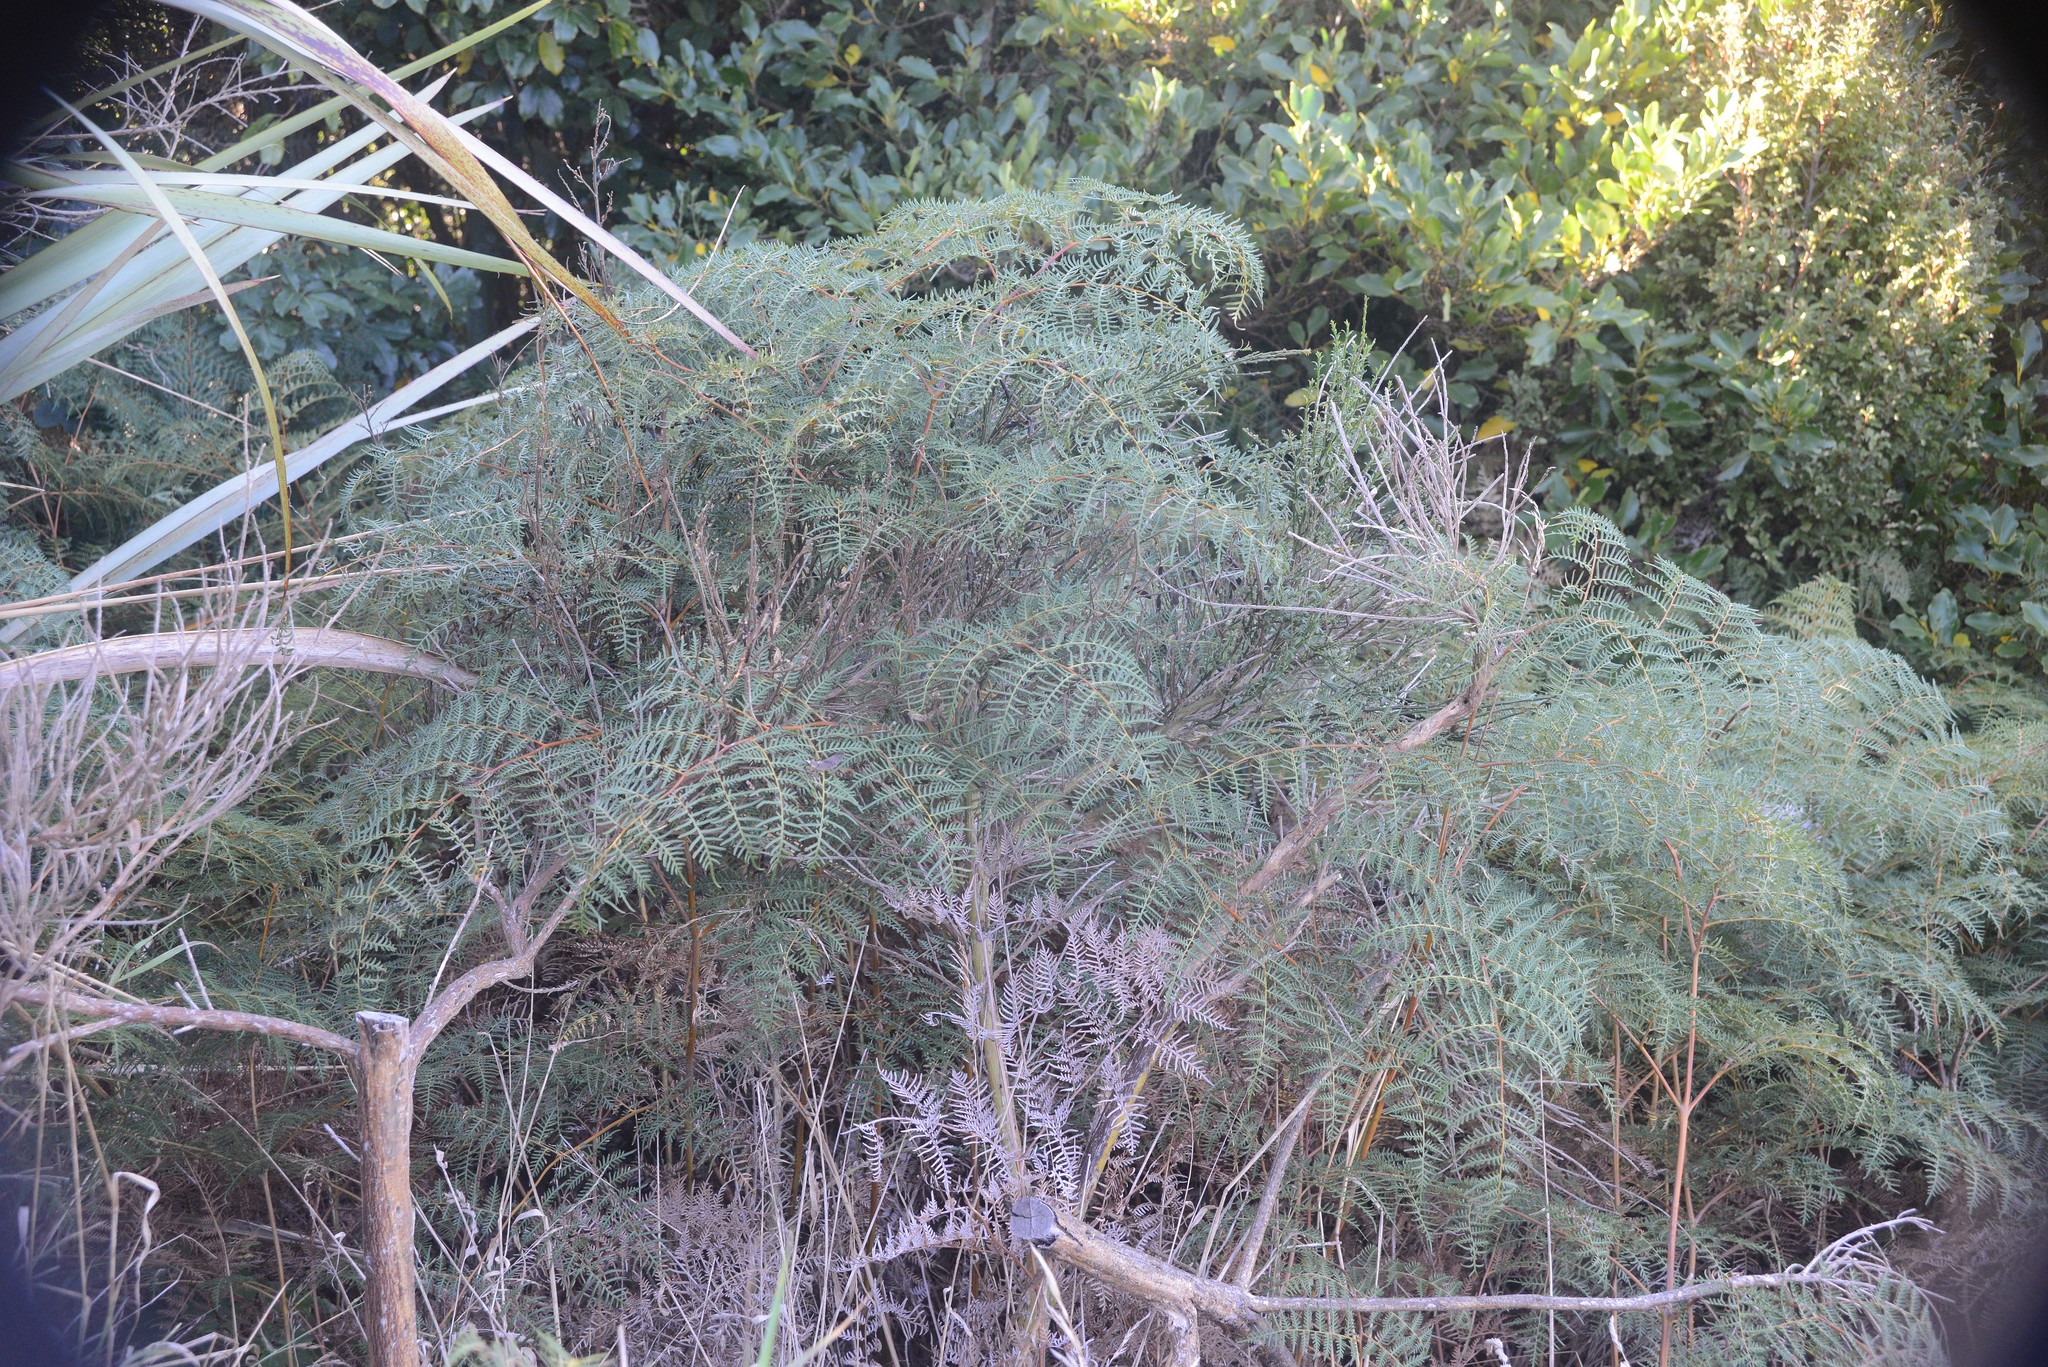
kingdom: Plantae
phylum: Tracheophyta
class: Polypodiopsida
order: Polypodiales
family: Dennstaedtiaceae
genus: Pteridium
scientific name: Pteridium esculentum
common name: Bracken fern
